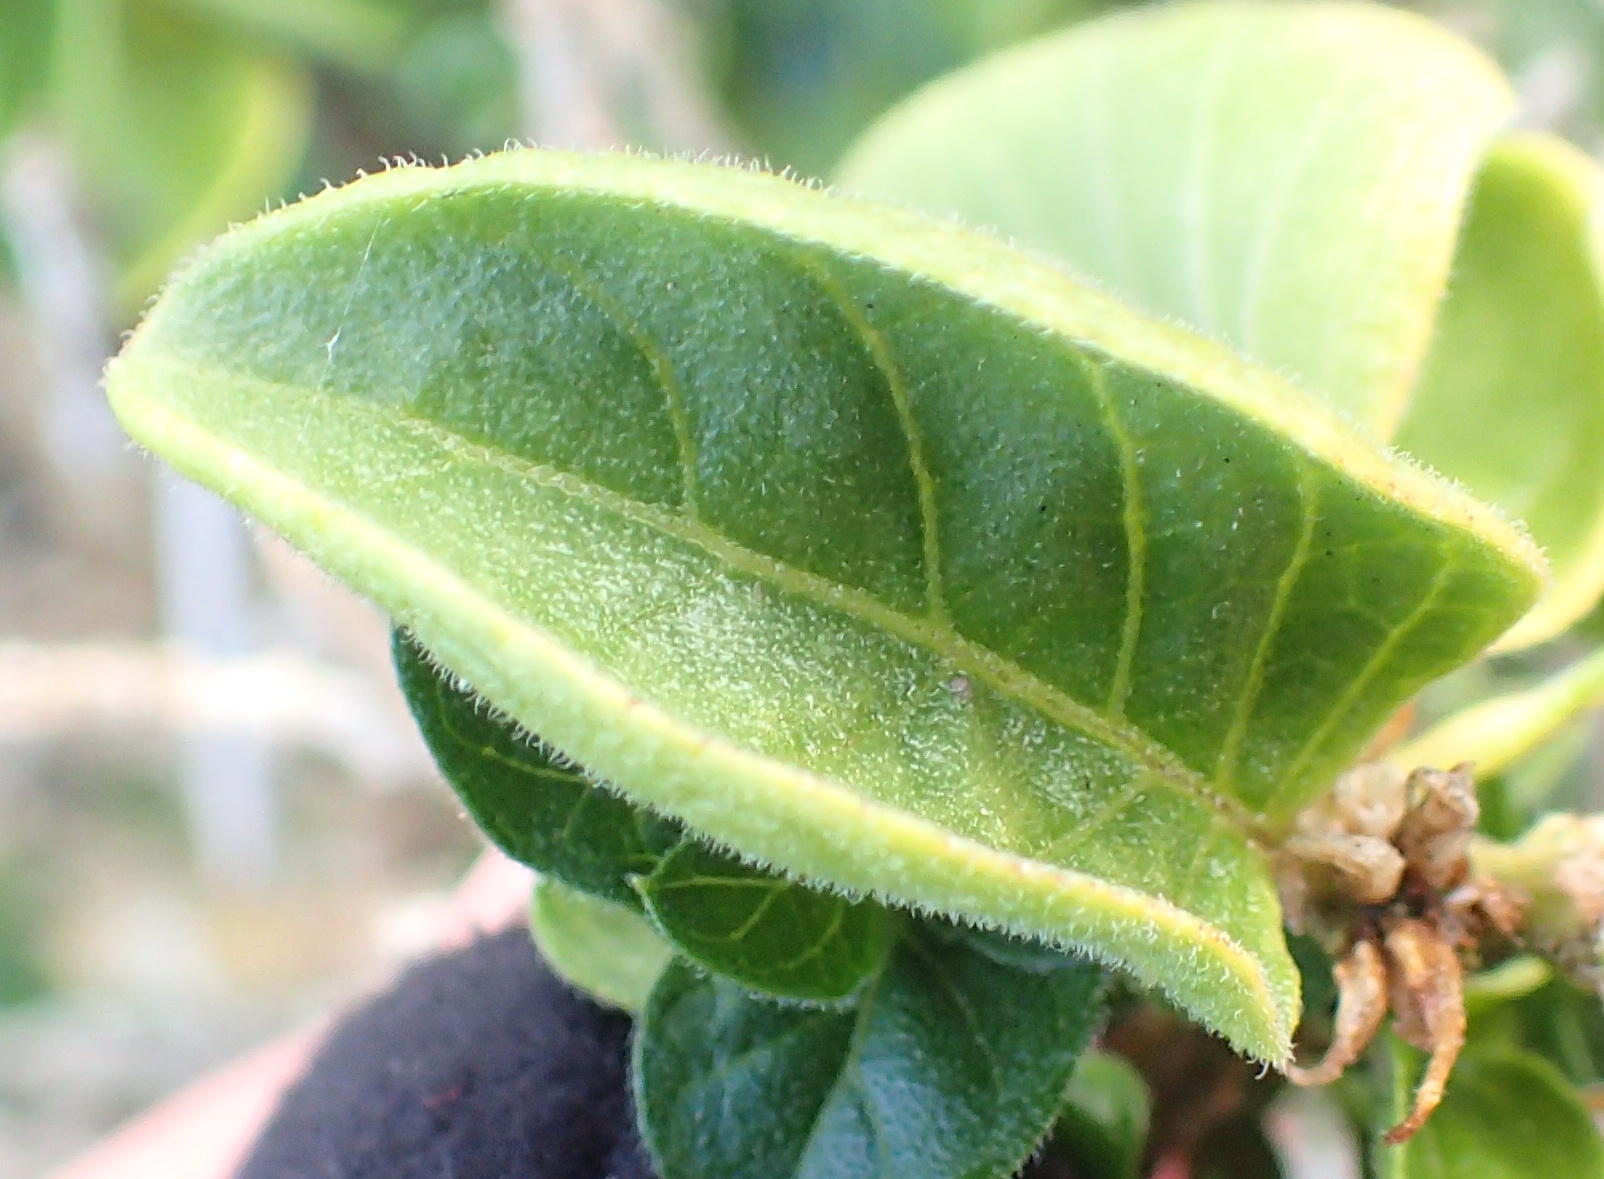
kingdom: Plantae
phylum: Tracheophyta
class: Magnoliopsida
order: Lamiales
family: Acanthaceae
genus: Hypoestes
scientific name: Hypoestes aristata
